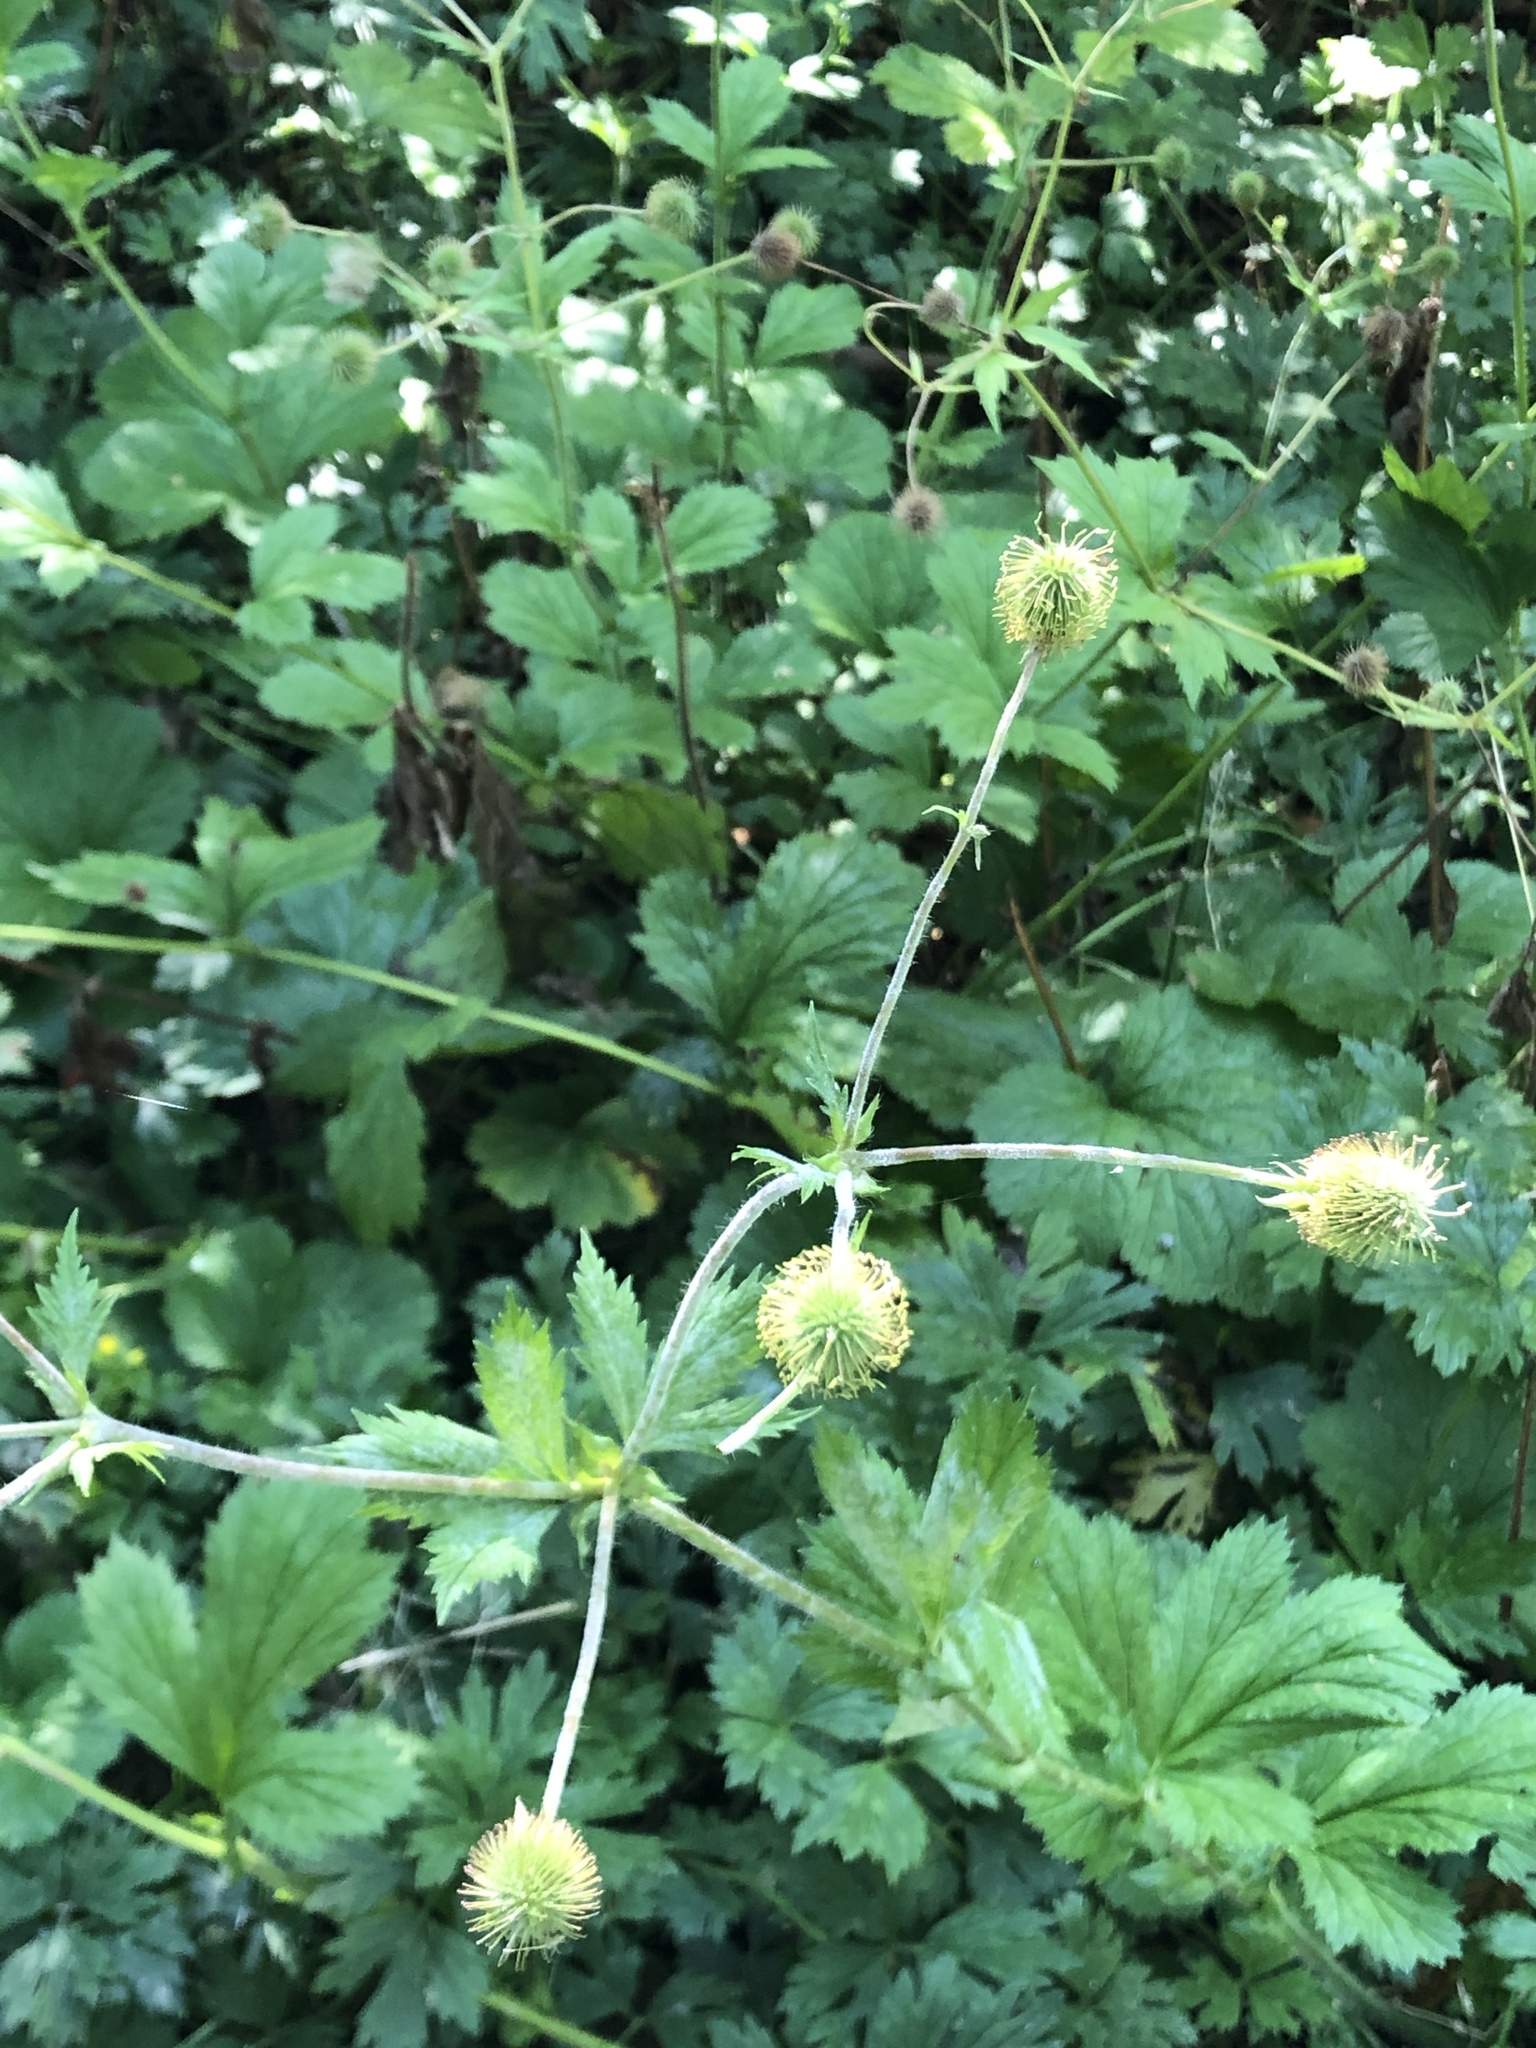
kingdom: Plantae
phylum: Tracheophyta
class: Magnoliopsida
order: Rosales
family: Rosaceae
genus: Geum
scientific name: Geum macrophyllum
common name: Large-leaved avens
